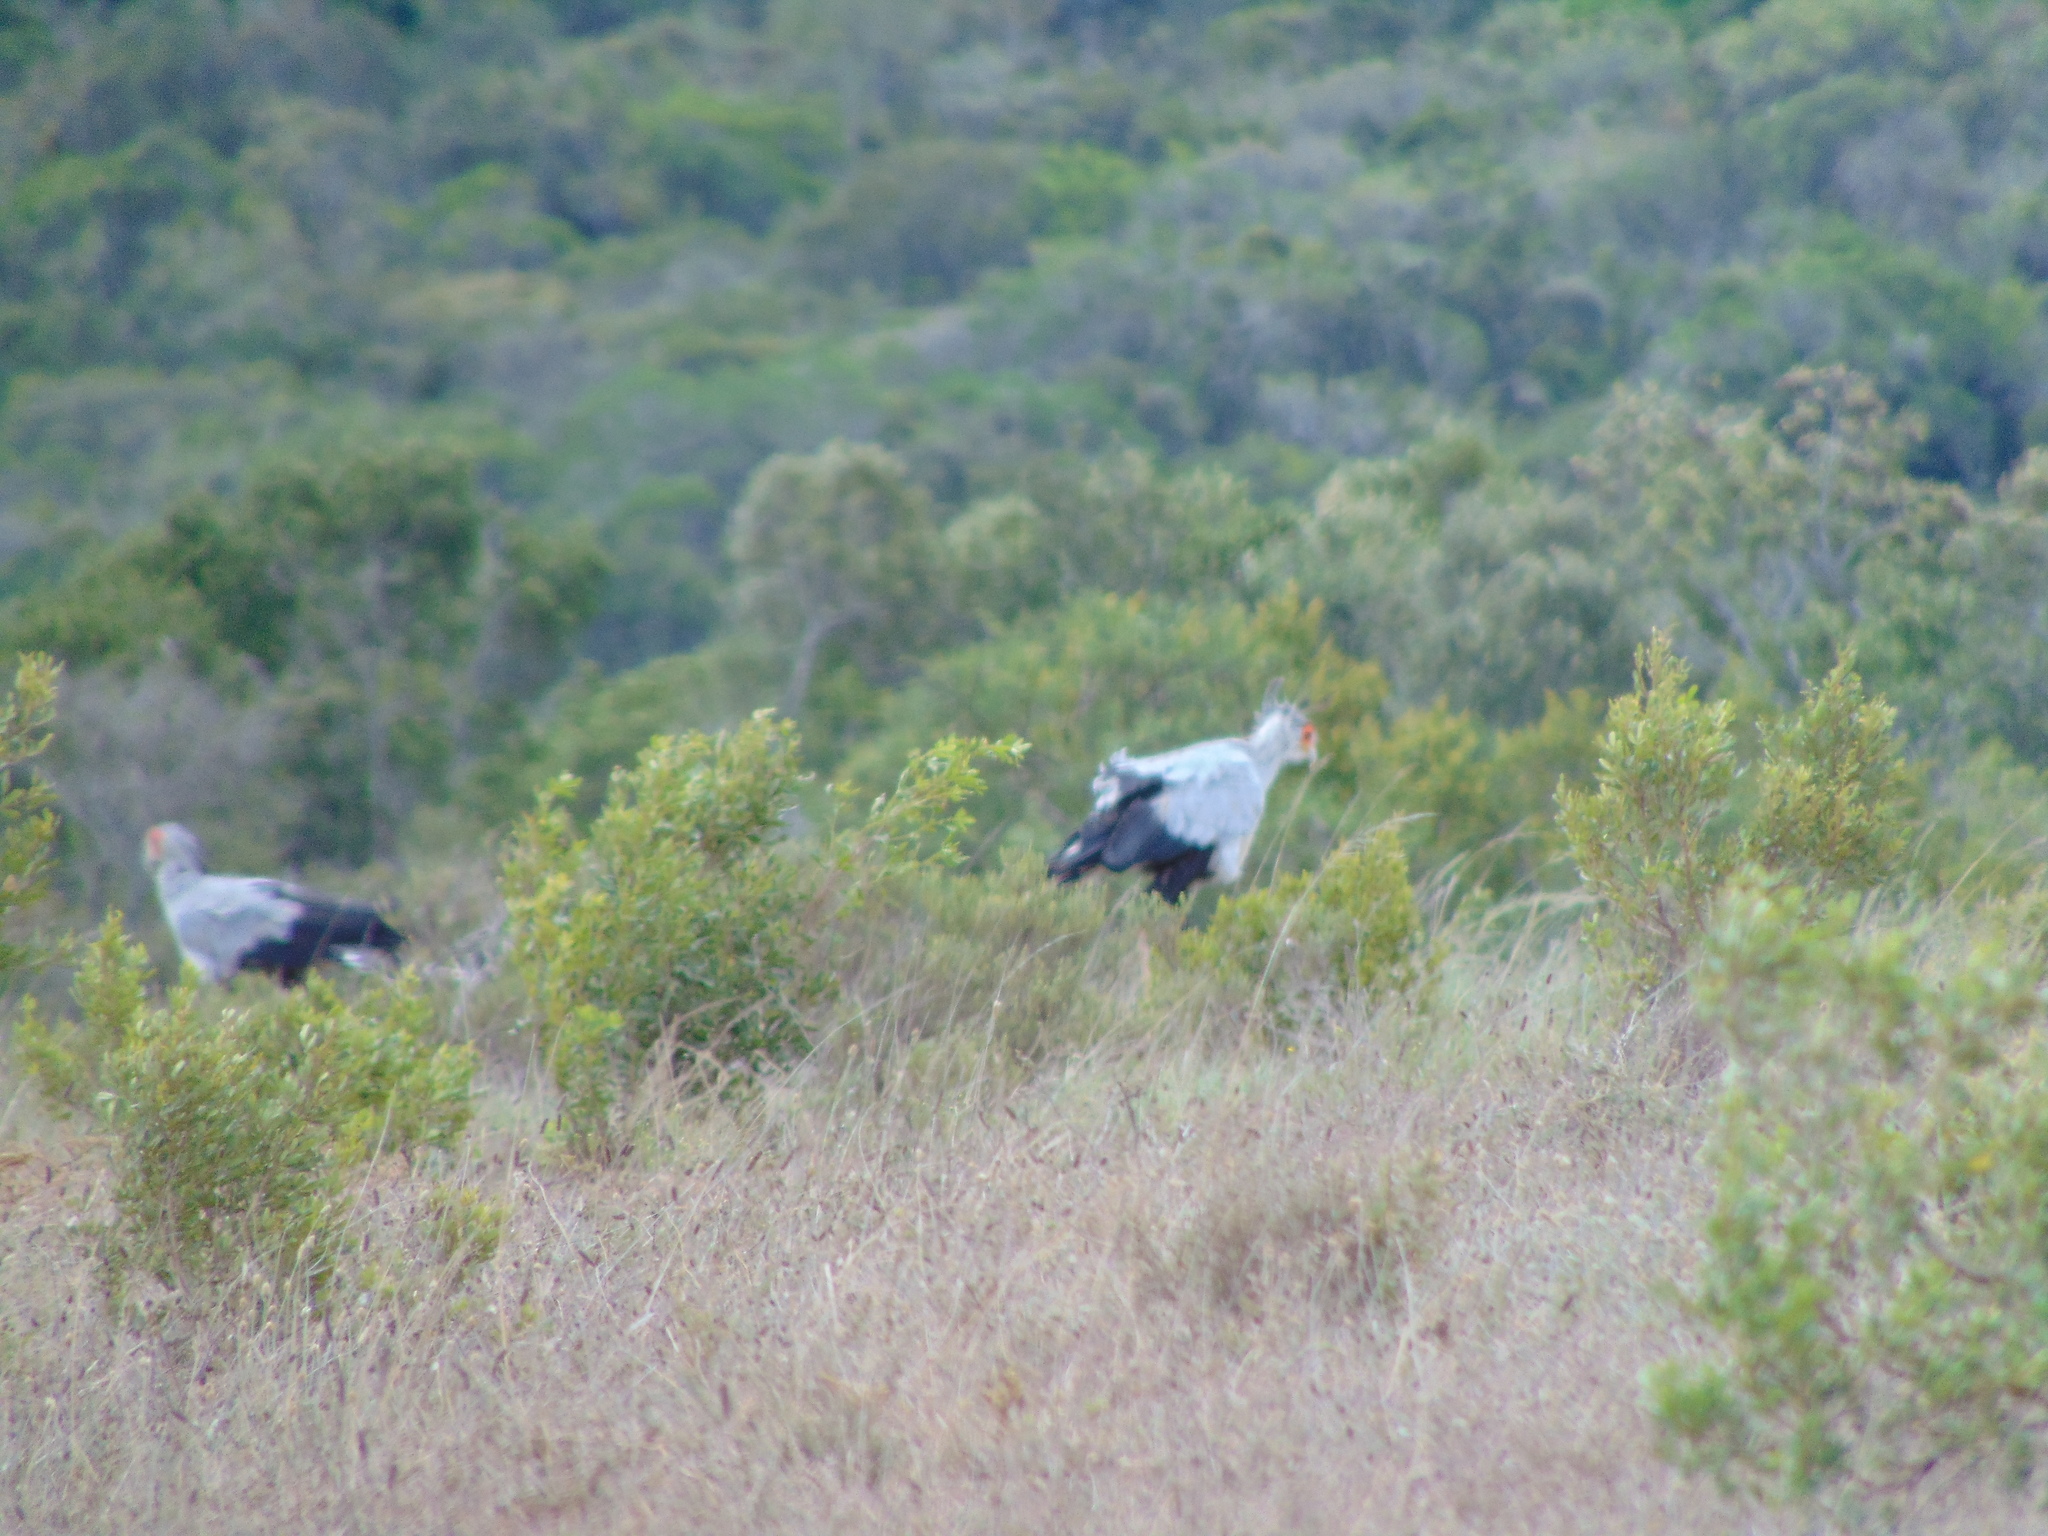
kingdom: Animalia
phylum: Chordata
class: Aves
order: Accipitriformes
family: Sagittariidae
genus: Sagittarius
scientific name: Sagittarius serpentarius
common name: Secretarybird
